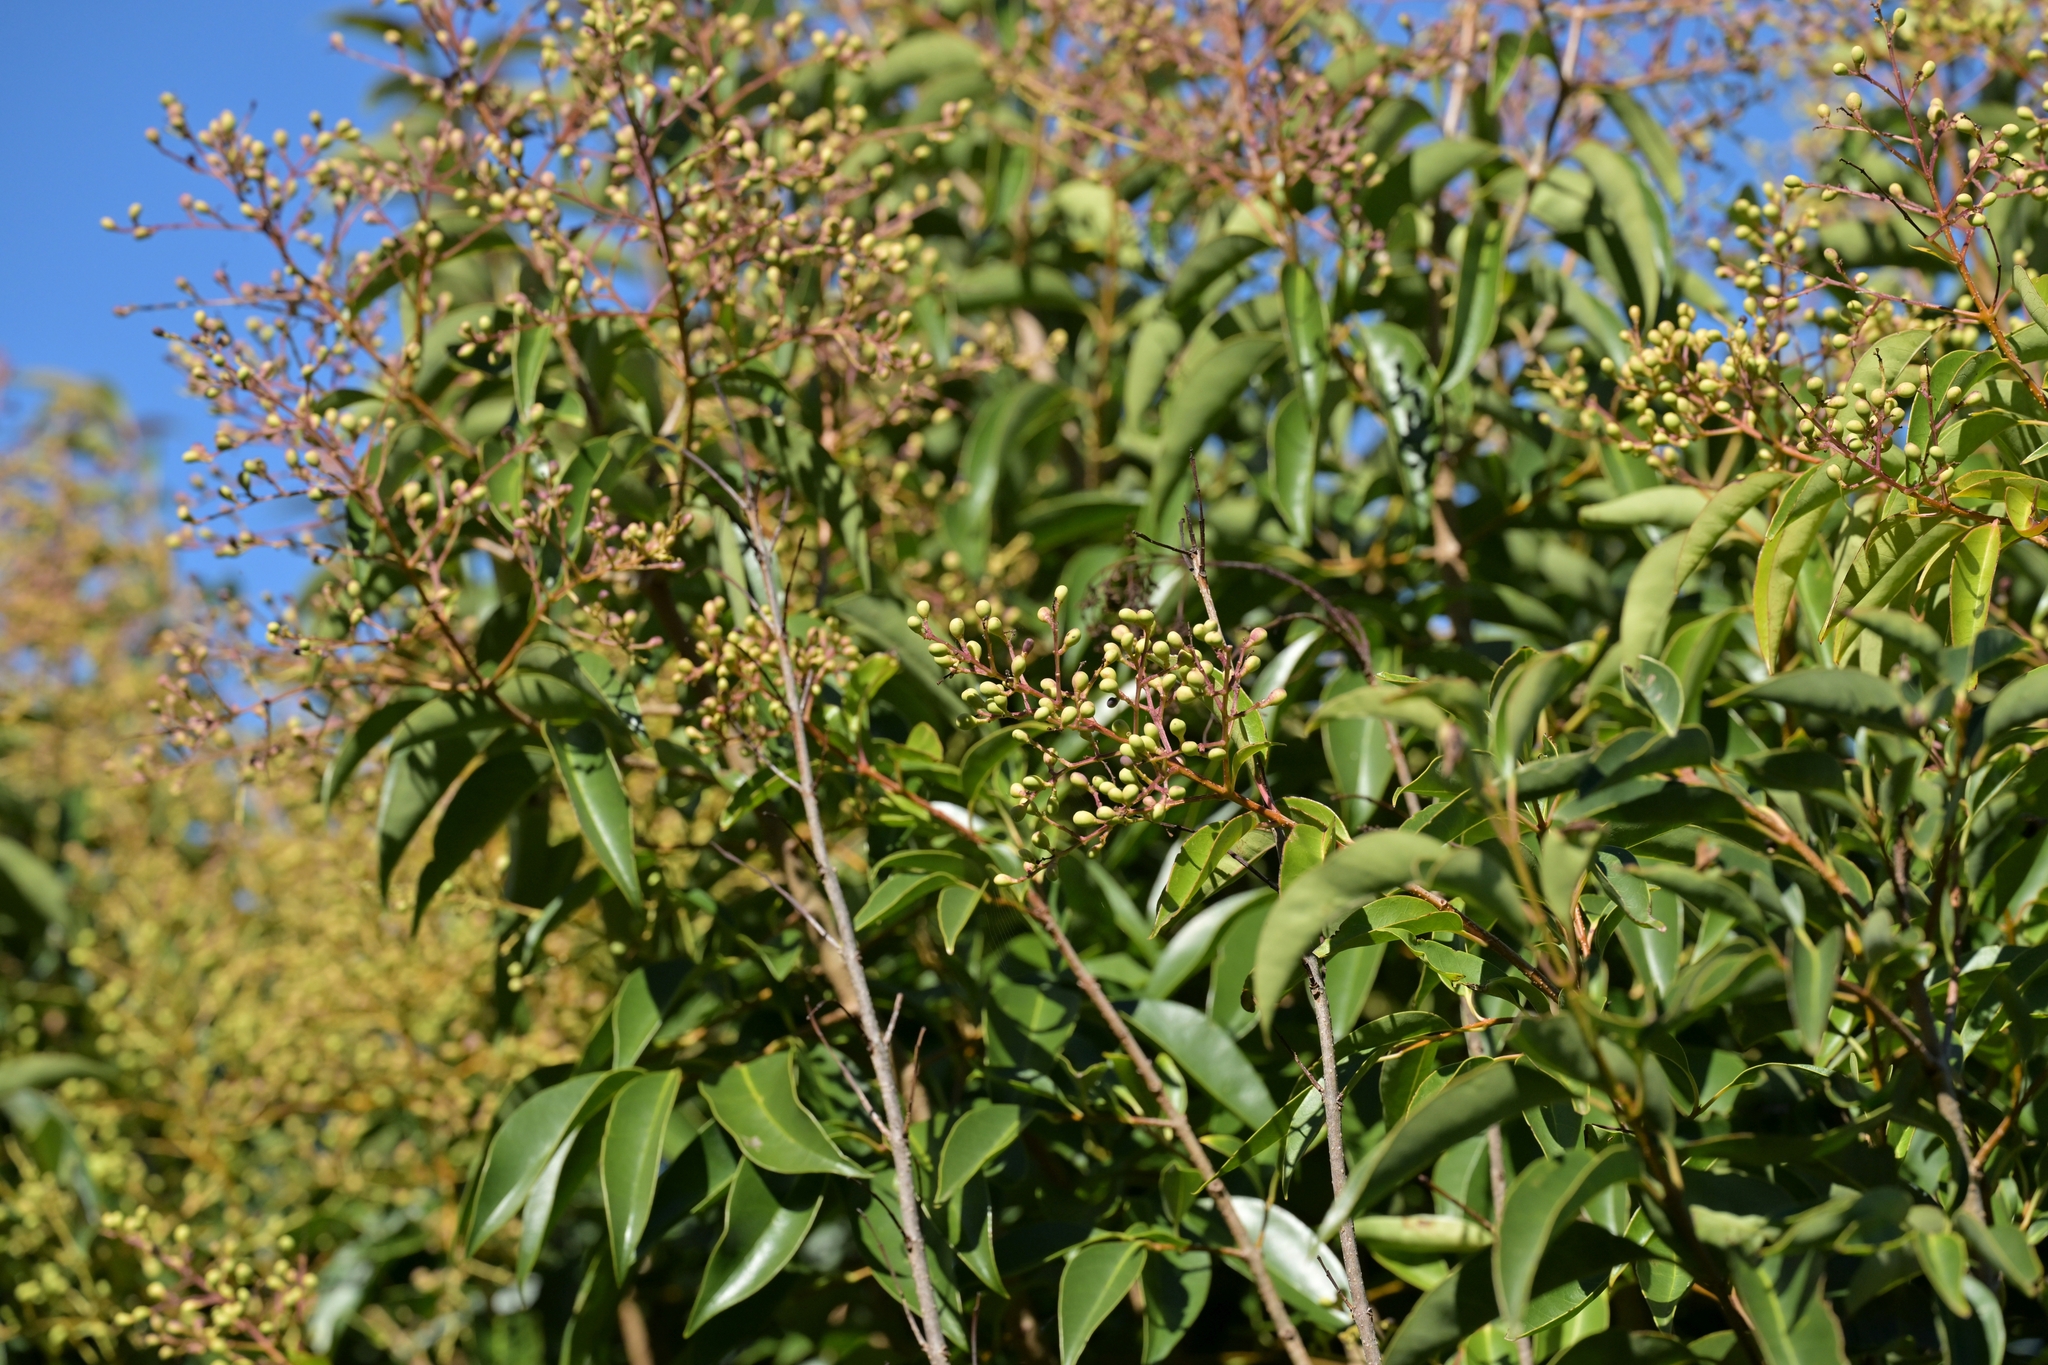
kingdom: Plantae
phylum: Tracheophyta
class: Magnoliopsida
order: Lamiales
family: Oleaceae
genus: Ligustrum
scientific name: Ligustrum lucidum
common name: Glossy privet
